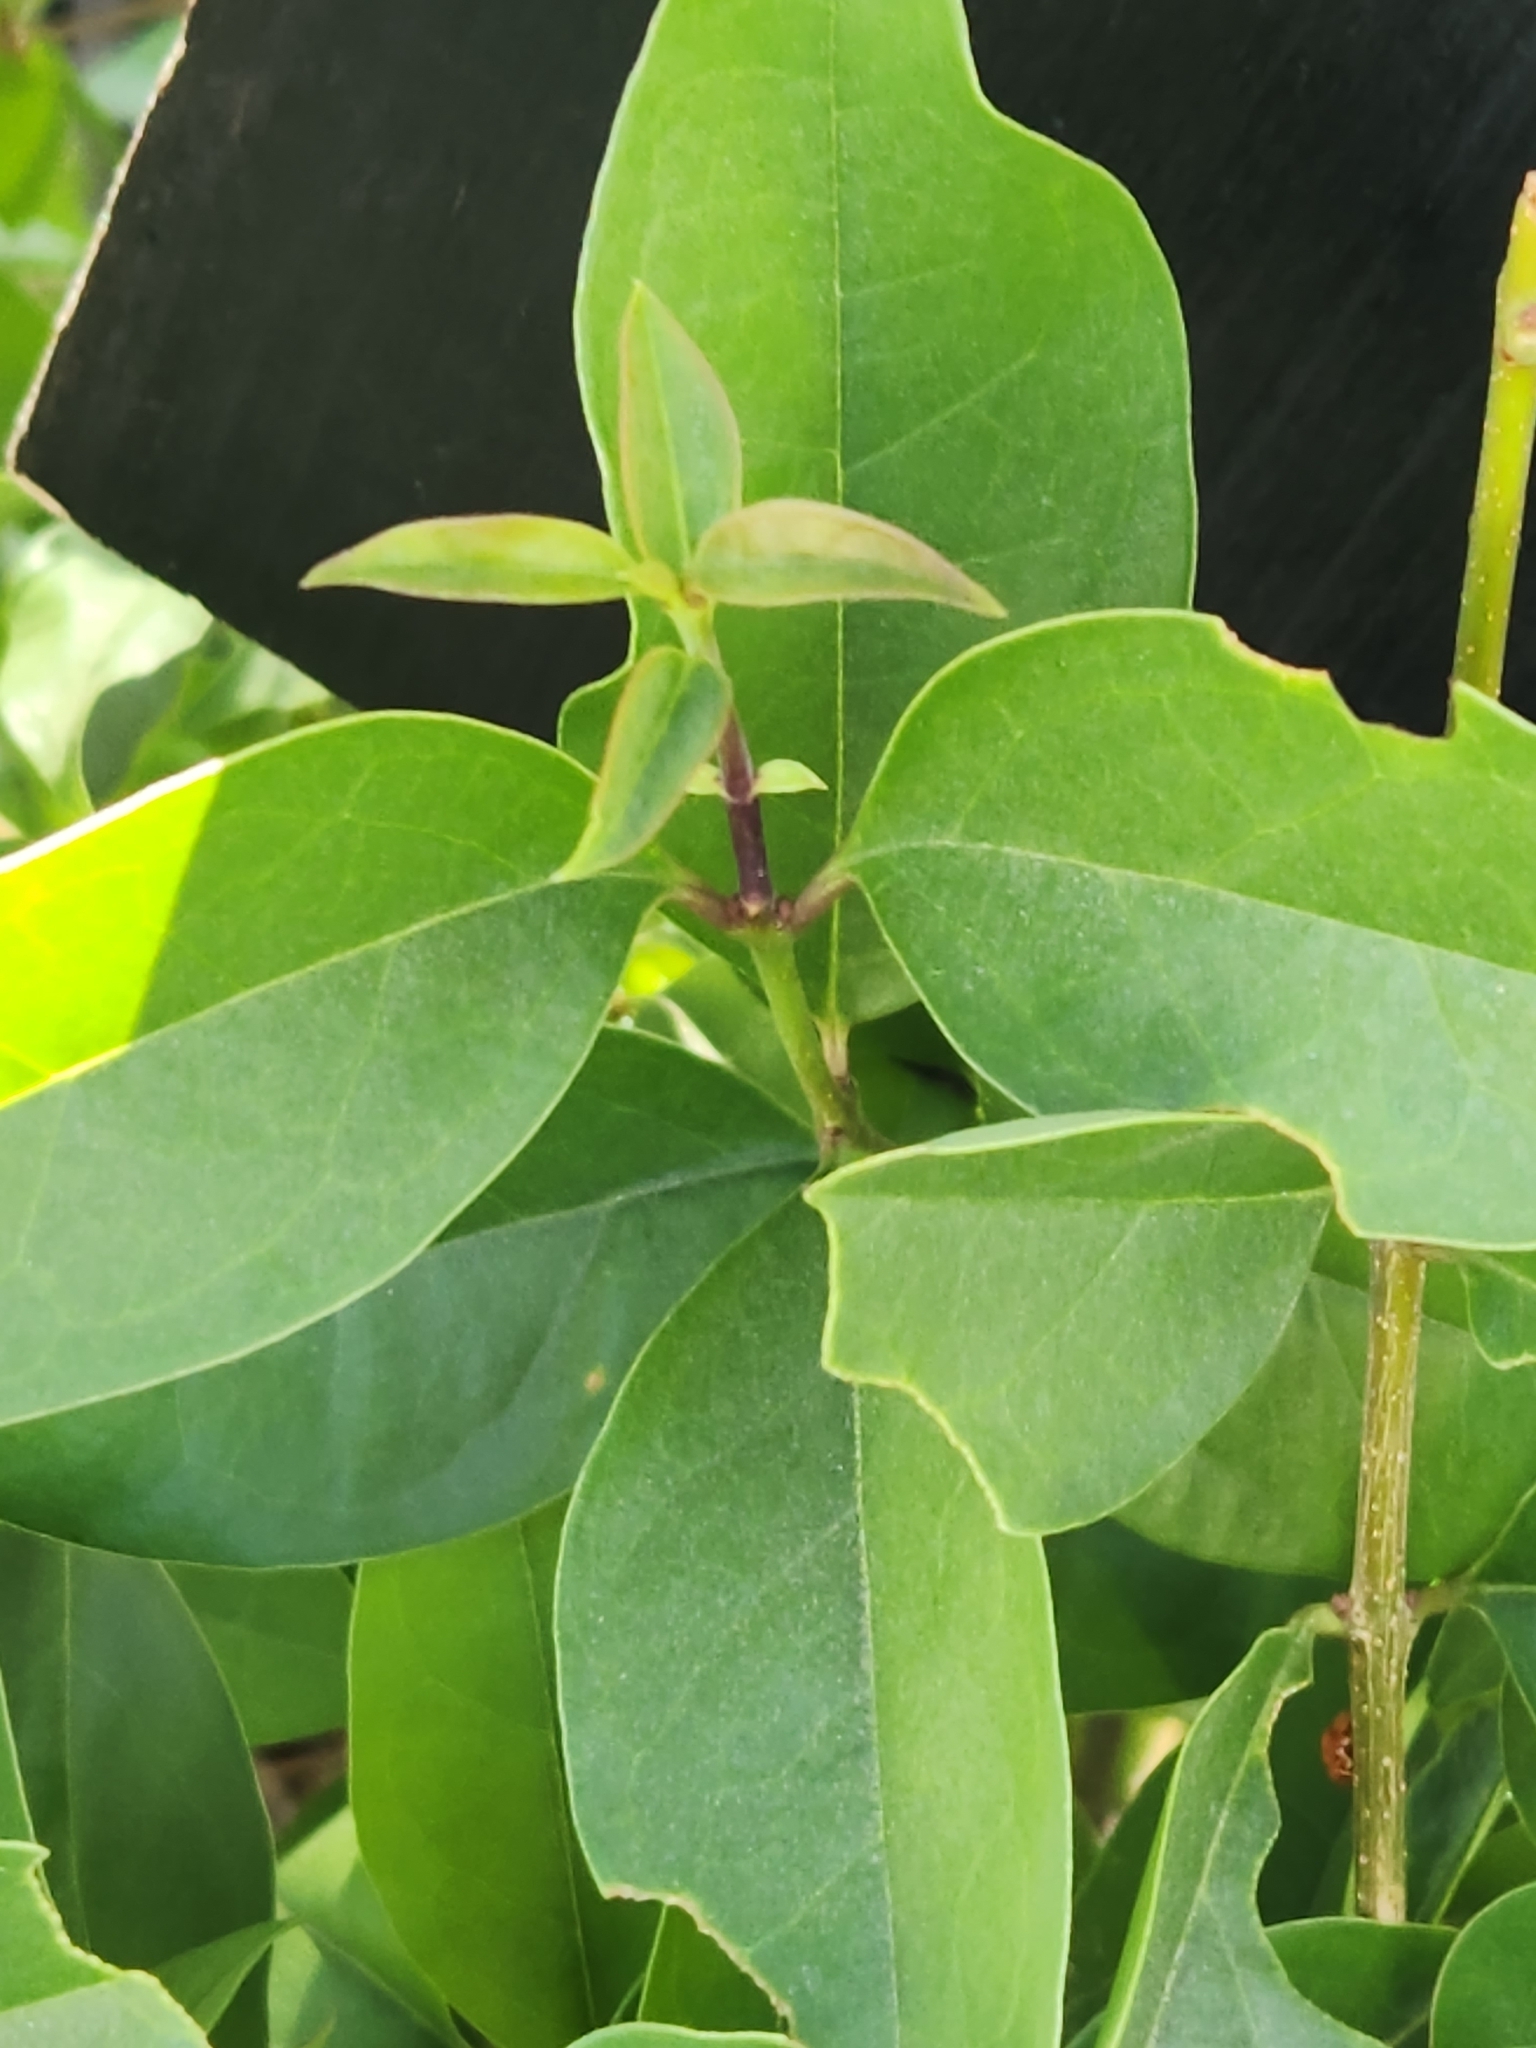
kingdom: Plantae
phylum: Tracheophyta
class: Magnoliopsida
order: Lamiales
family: Oleaceae
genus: Ligustrum
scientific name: Ligustrum lucidum
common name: Glossy privet
